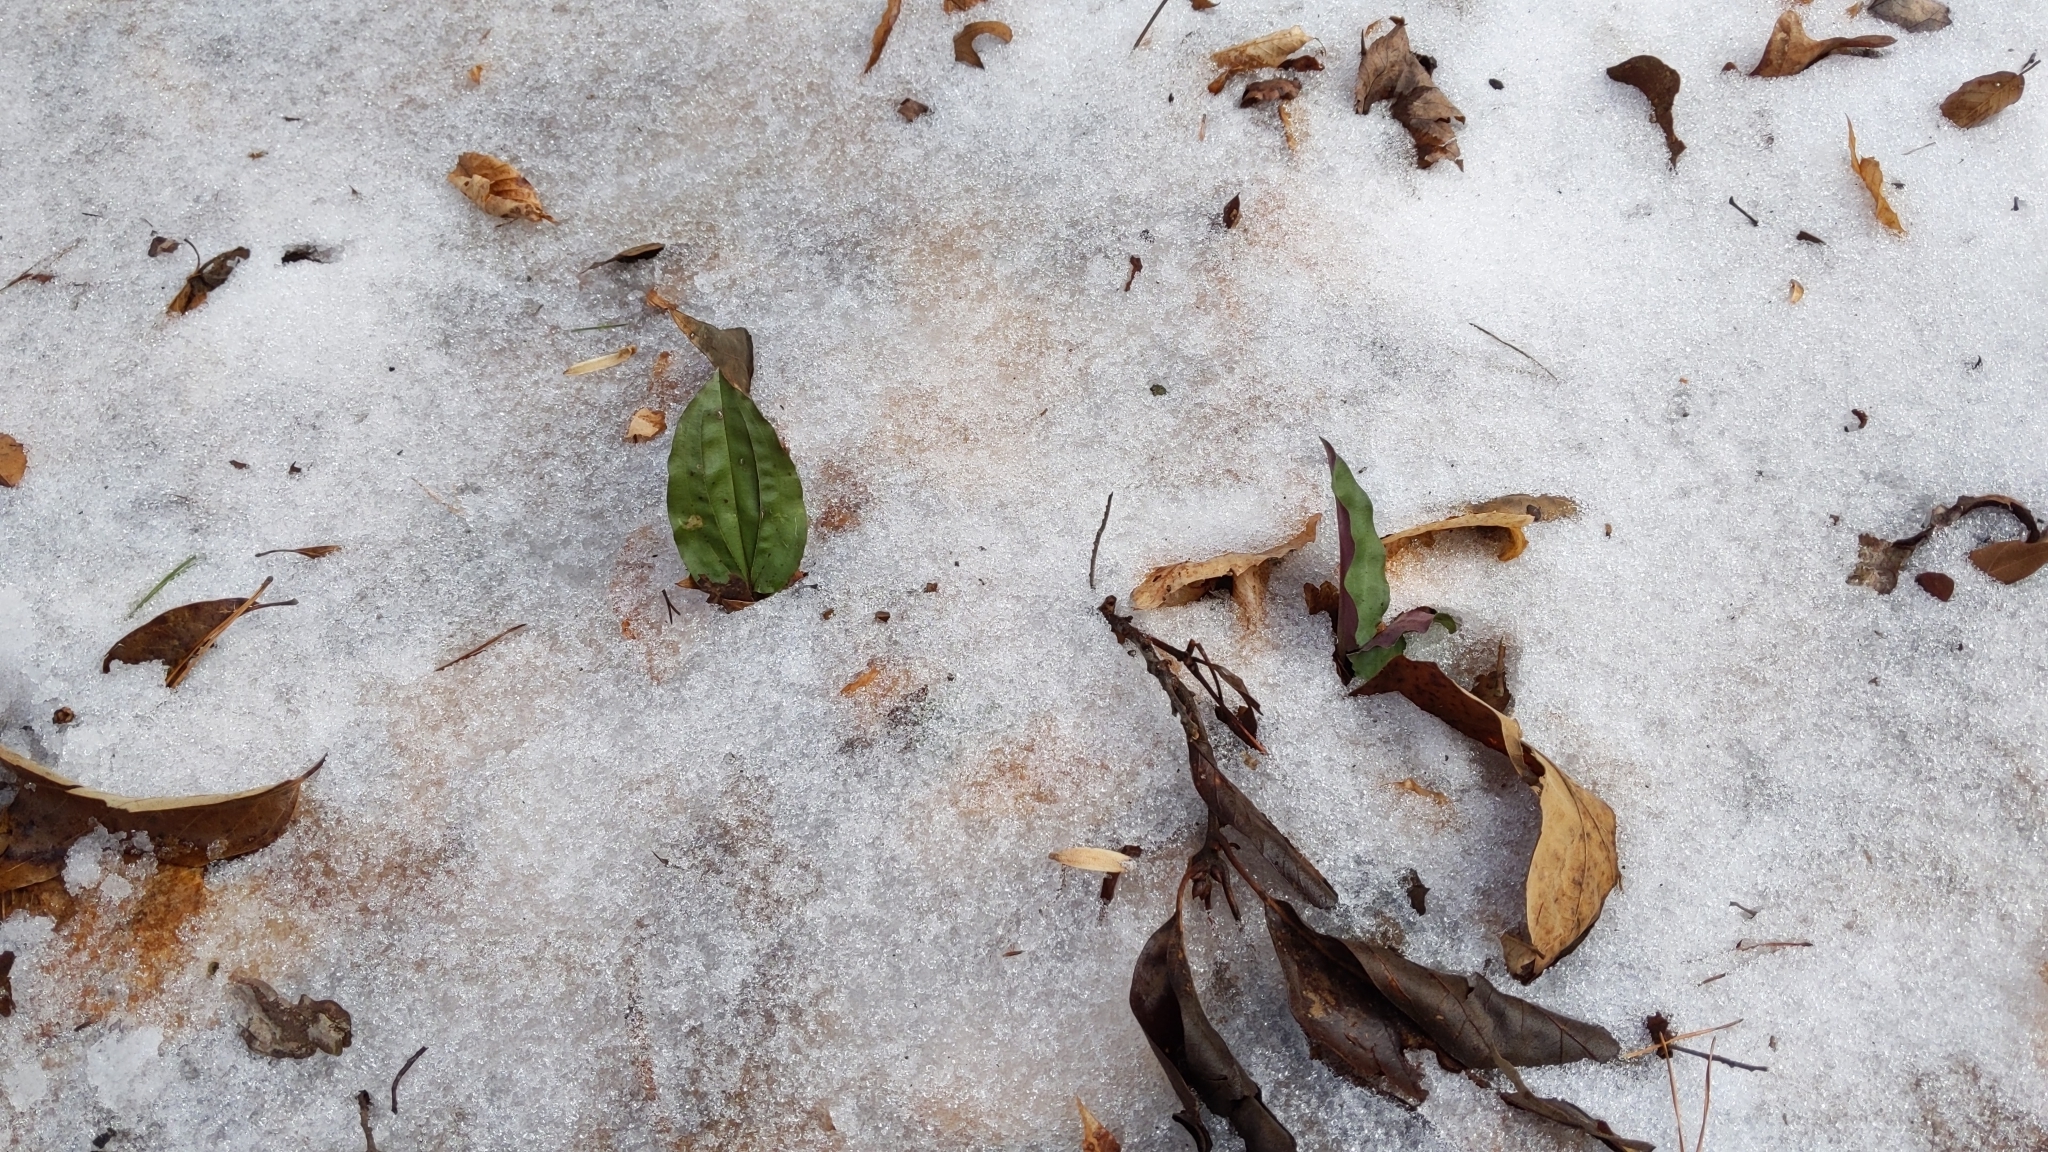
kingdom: Plantae
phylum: Tracheophyta
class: Liliopsida
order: Asparagales
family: Orchidaceae
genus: Tipularia
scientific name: Tipularia discolor
